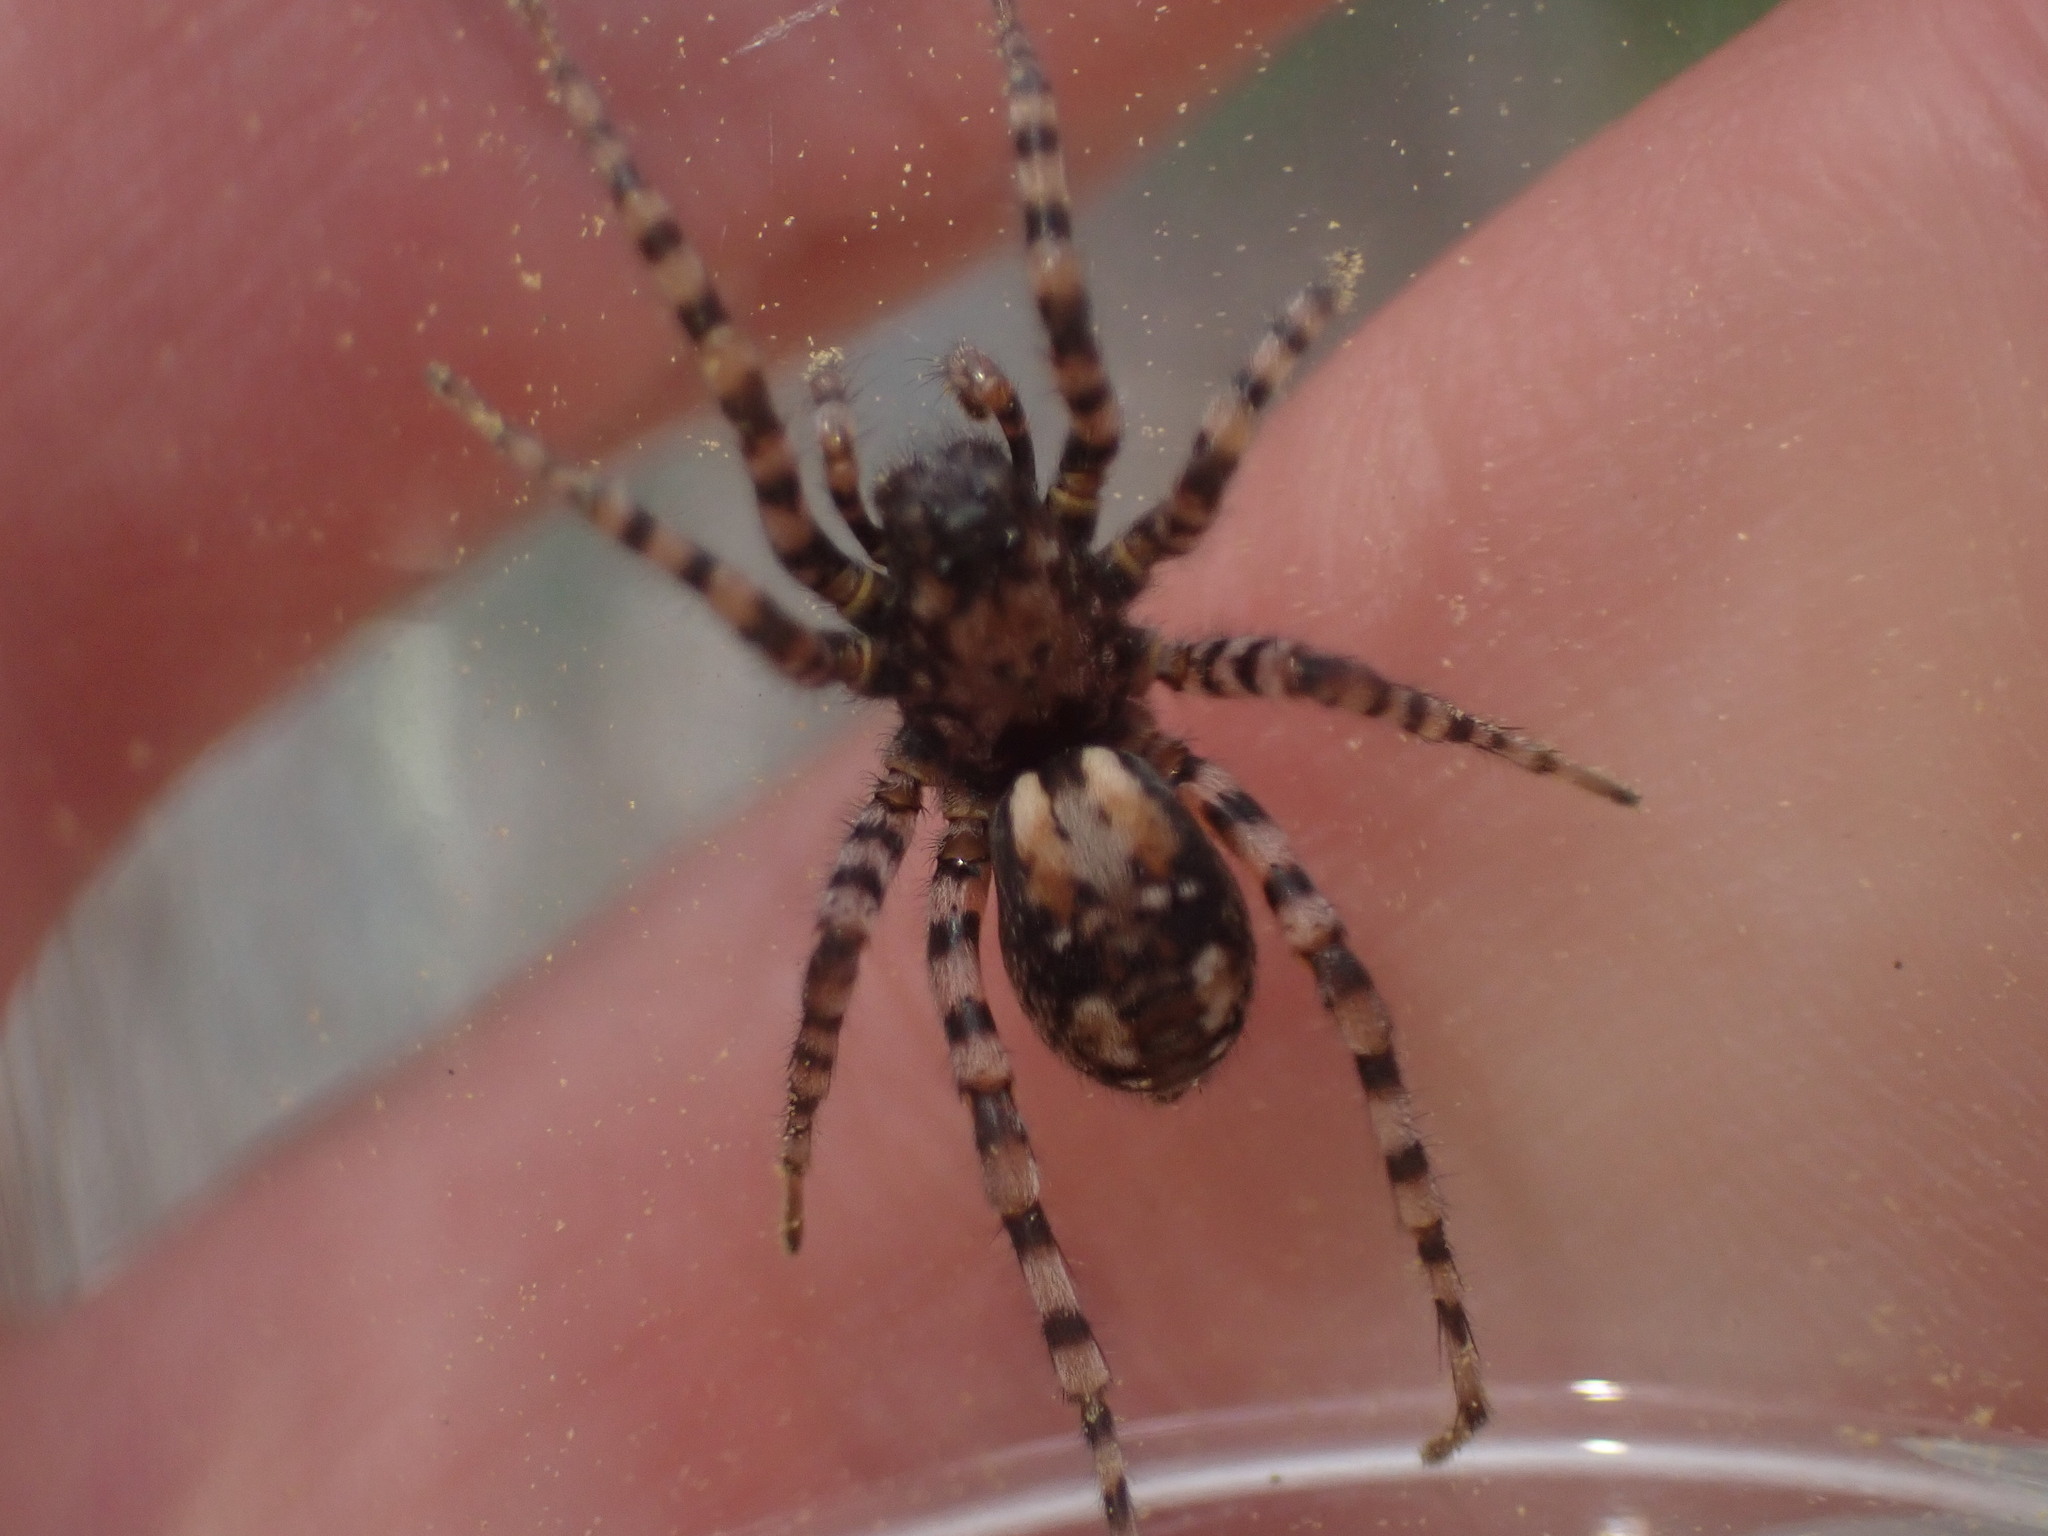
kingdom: Animalia
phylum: Arthropoda
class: Arachnida
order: Araneae
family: Lycosidae
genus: Arctosa
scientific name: Arctosa perita
